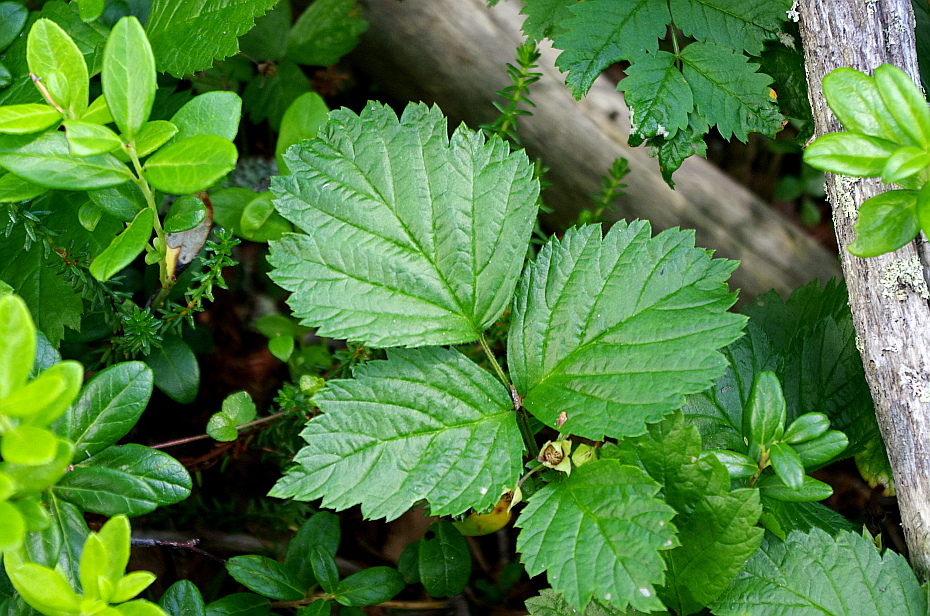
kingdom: Plantae
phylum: Tracheophyta
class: Magnoliopsida
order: Rosales
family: Rosaceae
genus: Rubus
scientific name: Rubus saxatilis
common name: Stone bramble
